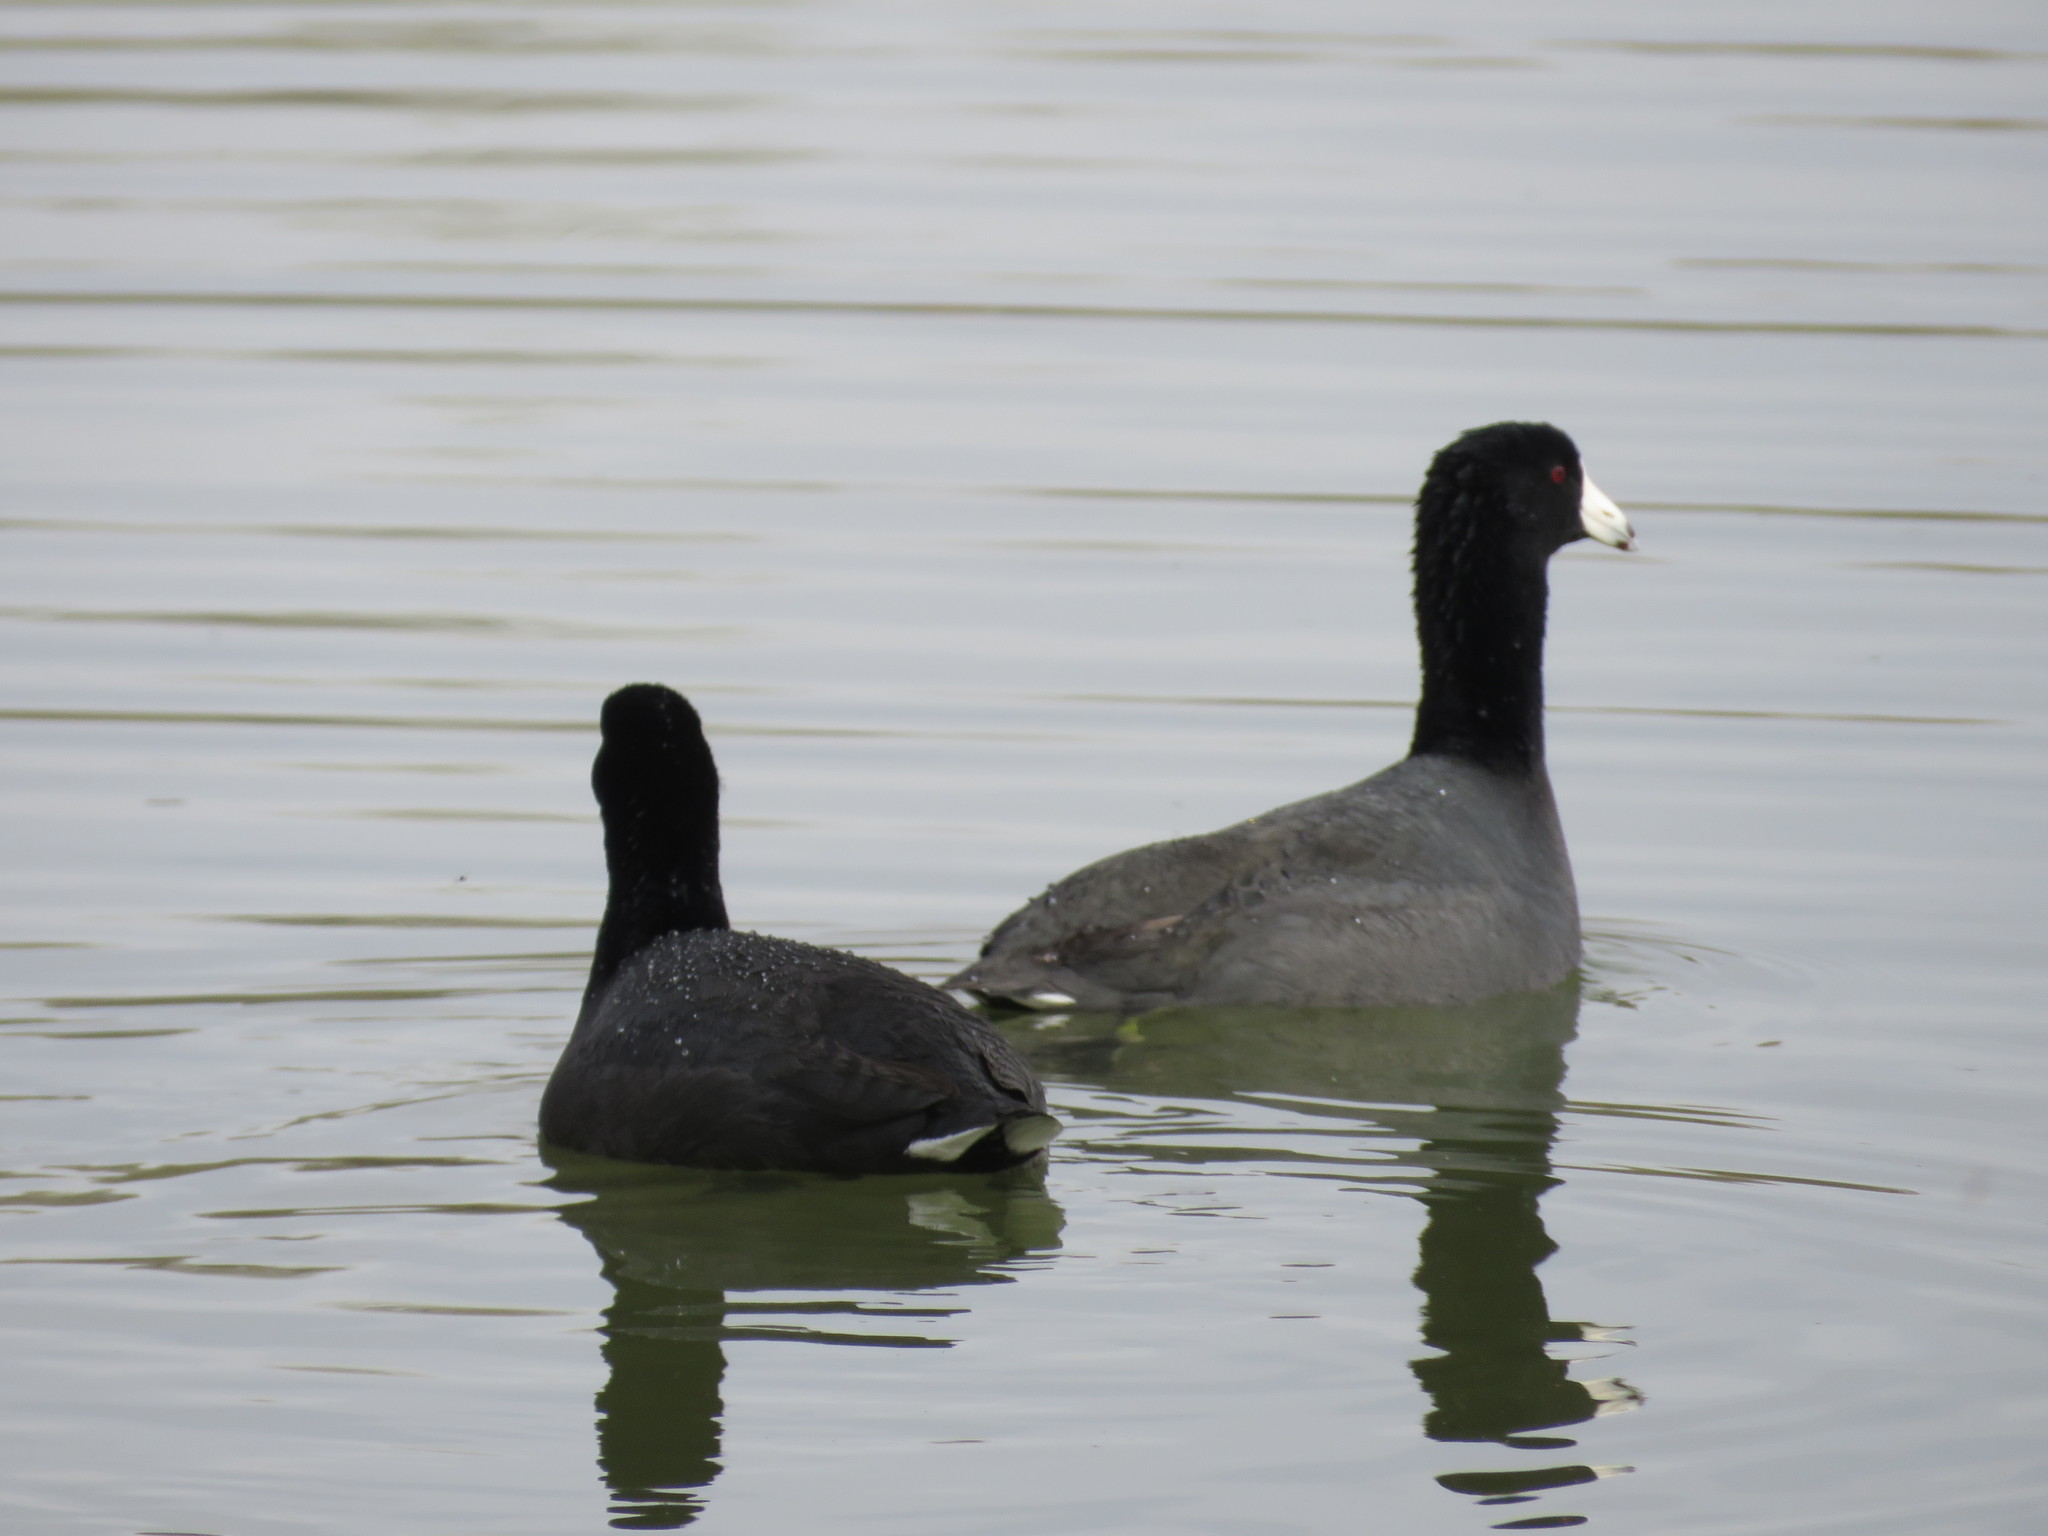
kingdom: Animalia
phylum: Chordata
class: Aves
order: Gruiformes
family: Rallidae
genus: Fulica
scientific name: Fulica americana
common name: American coot
